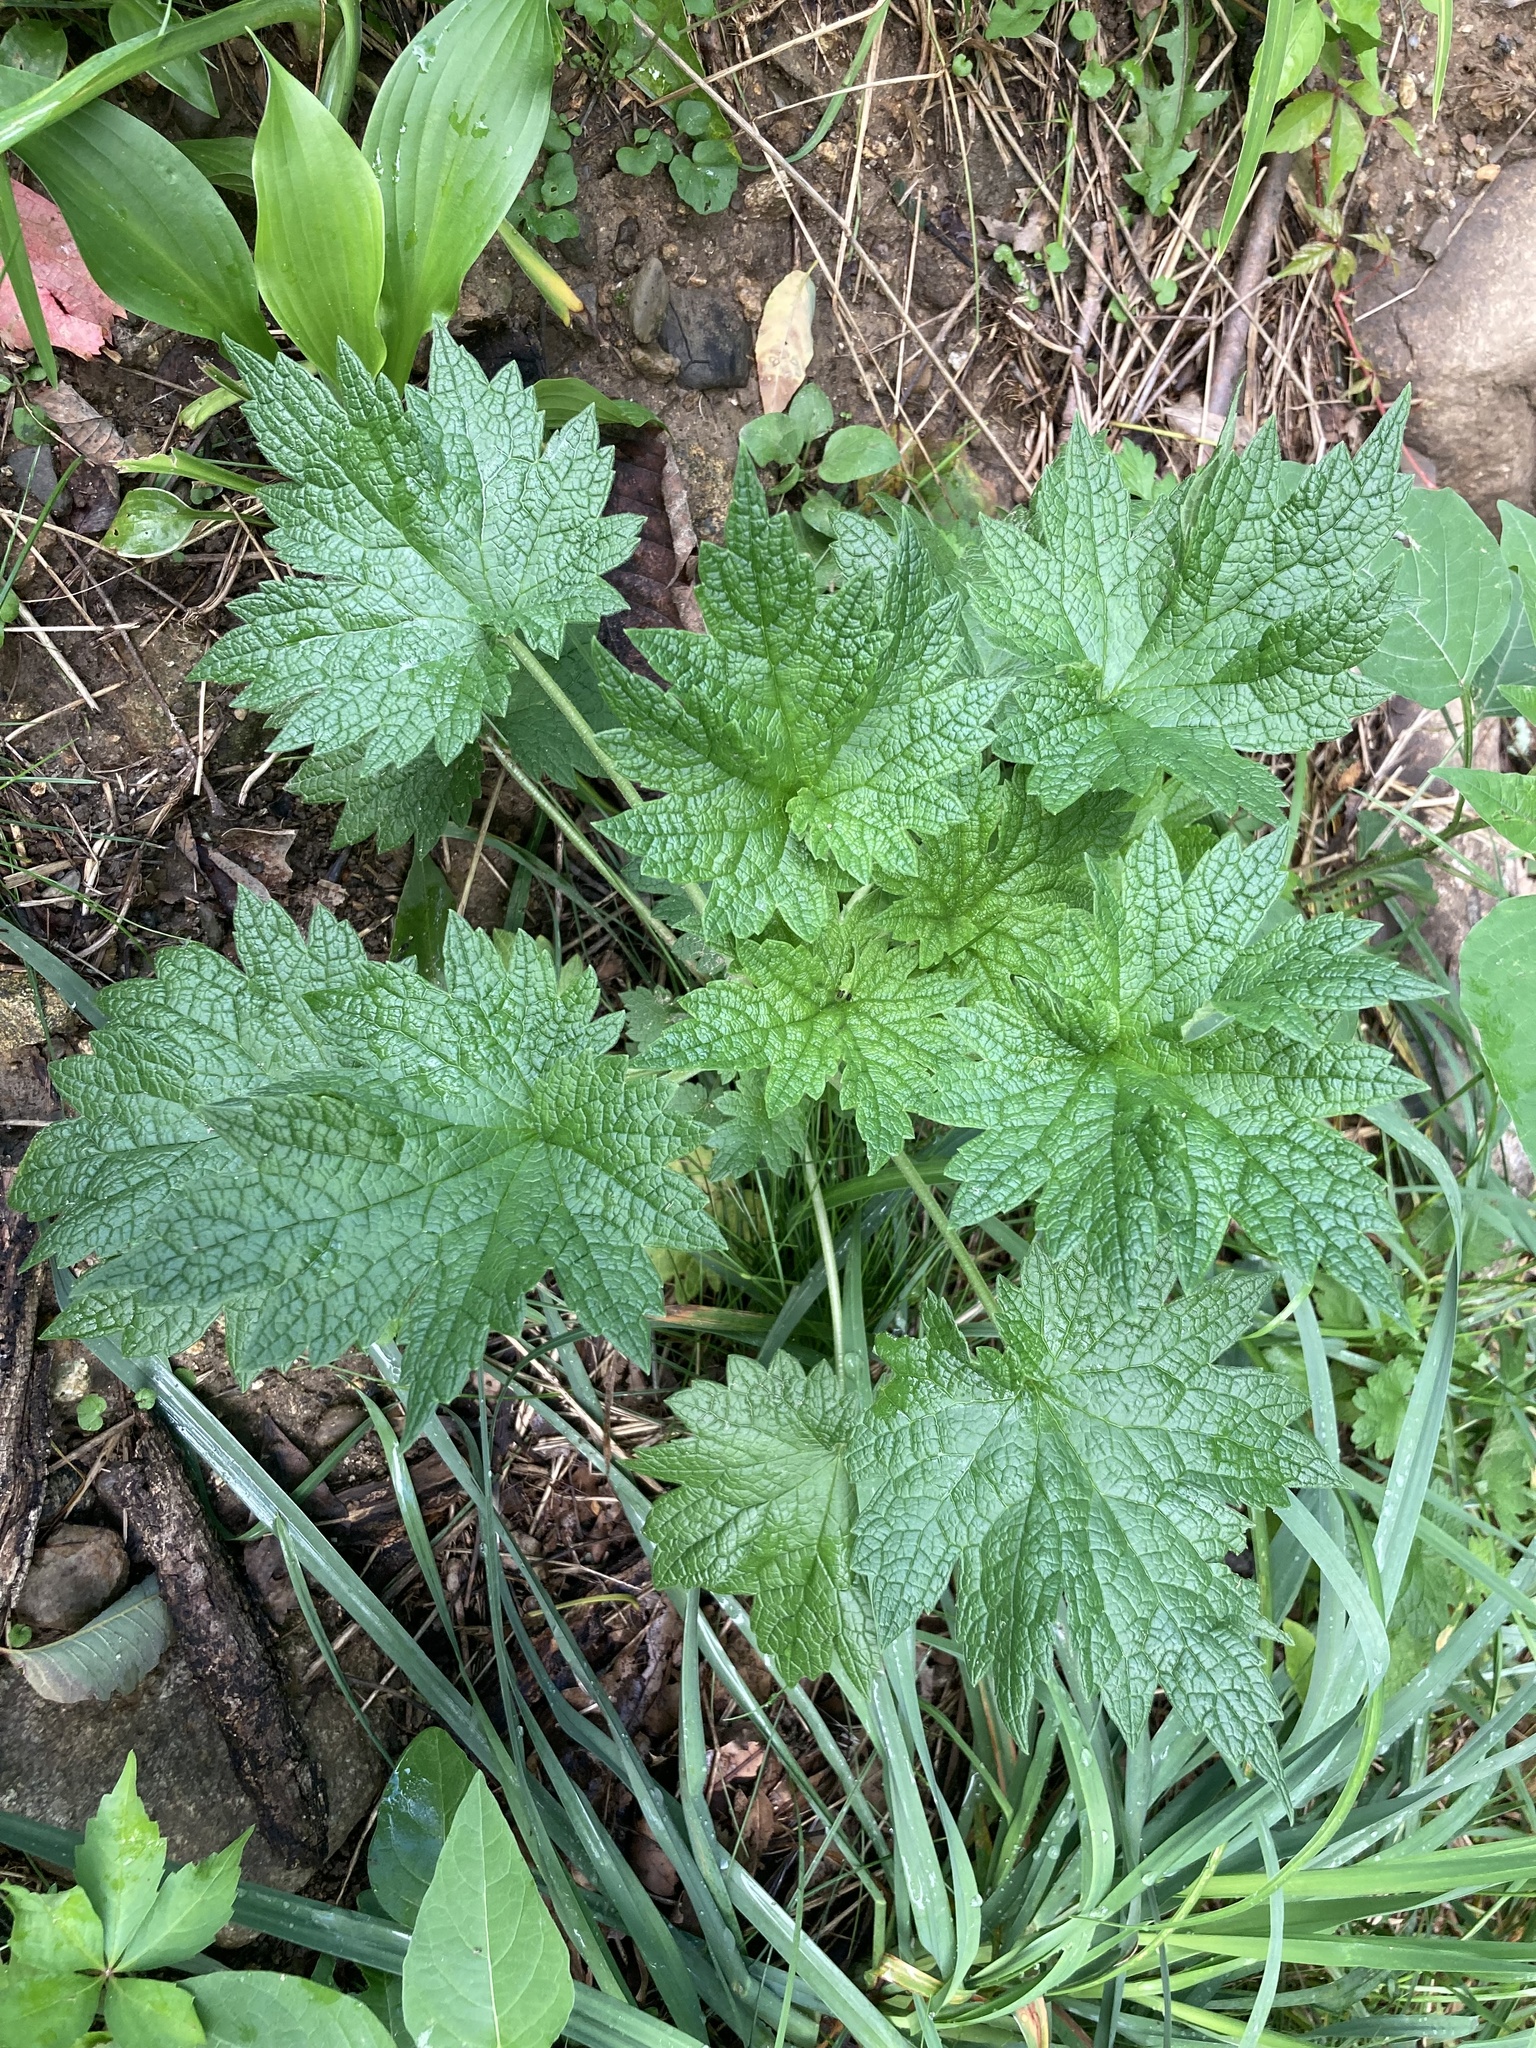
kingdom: Plantae
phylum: Tracheophyta
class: Magnoliopsida
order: Lamiales
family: Lamiaceae
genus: Leonurus
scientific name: Leonurus cardiaca
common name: Motherwort
